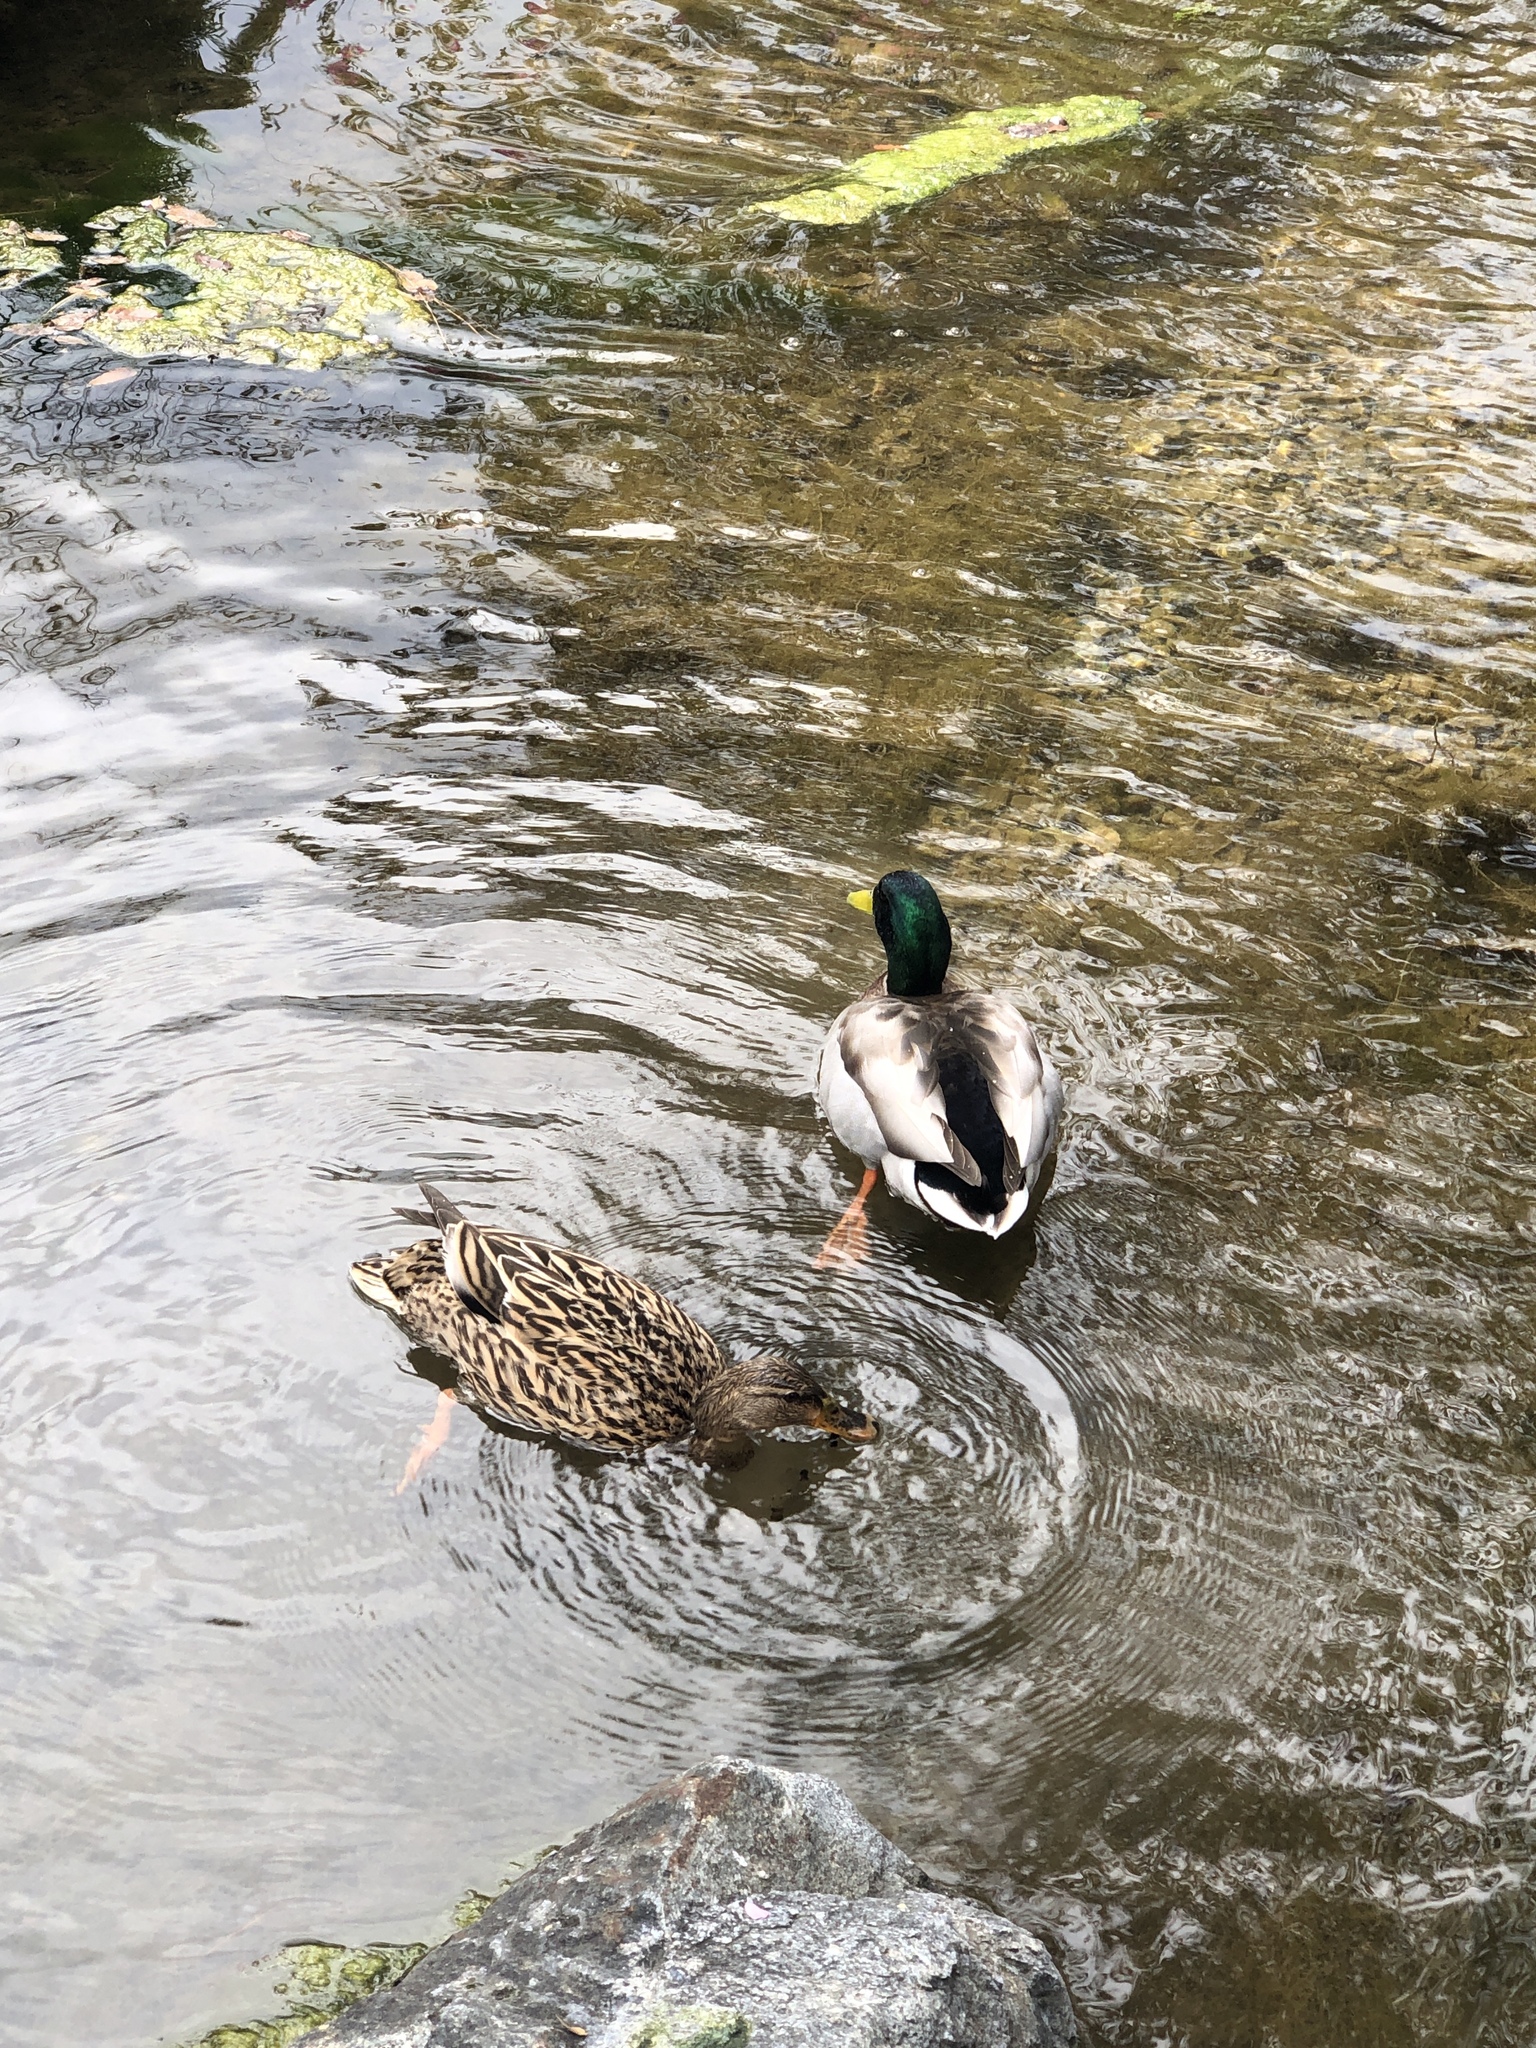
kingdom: Animalia
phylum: Chordata
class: Aves
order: Anseriformes
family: Anatidae
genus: Anas
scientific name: Anas platyrhynchos
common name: Mallard
